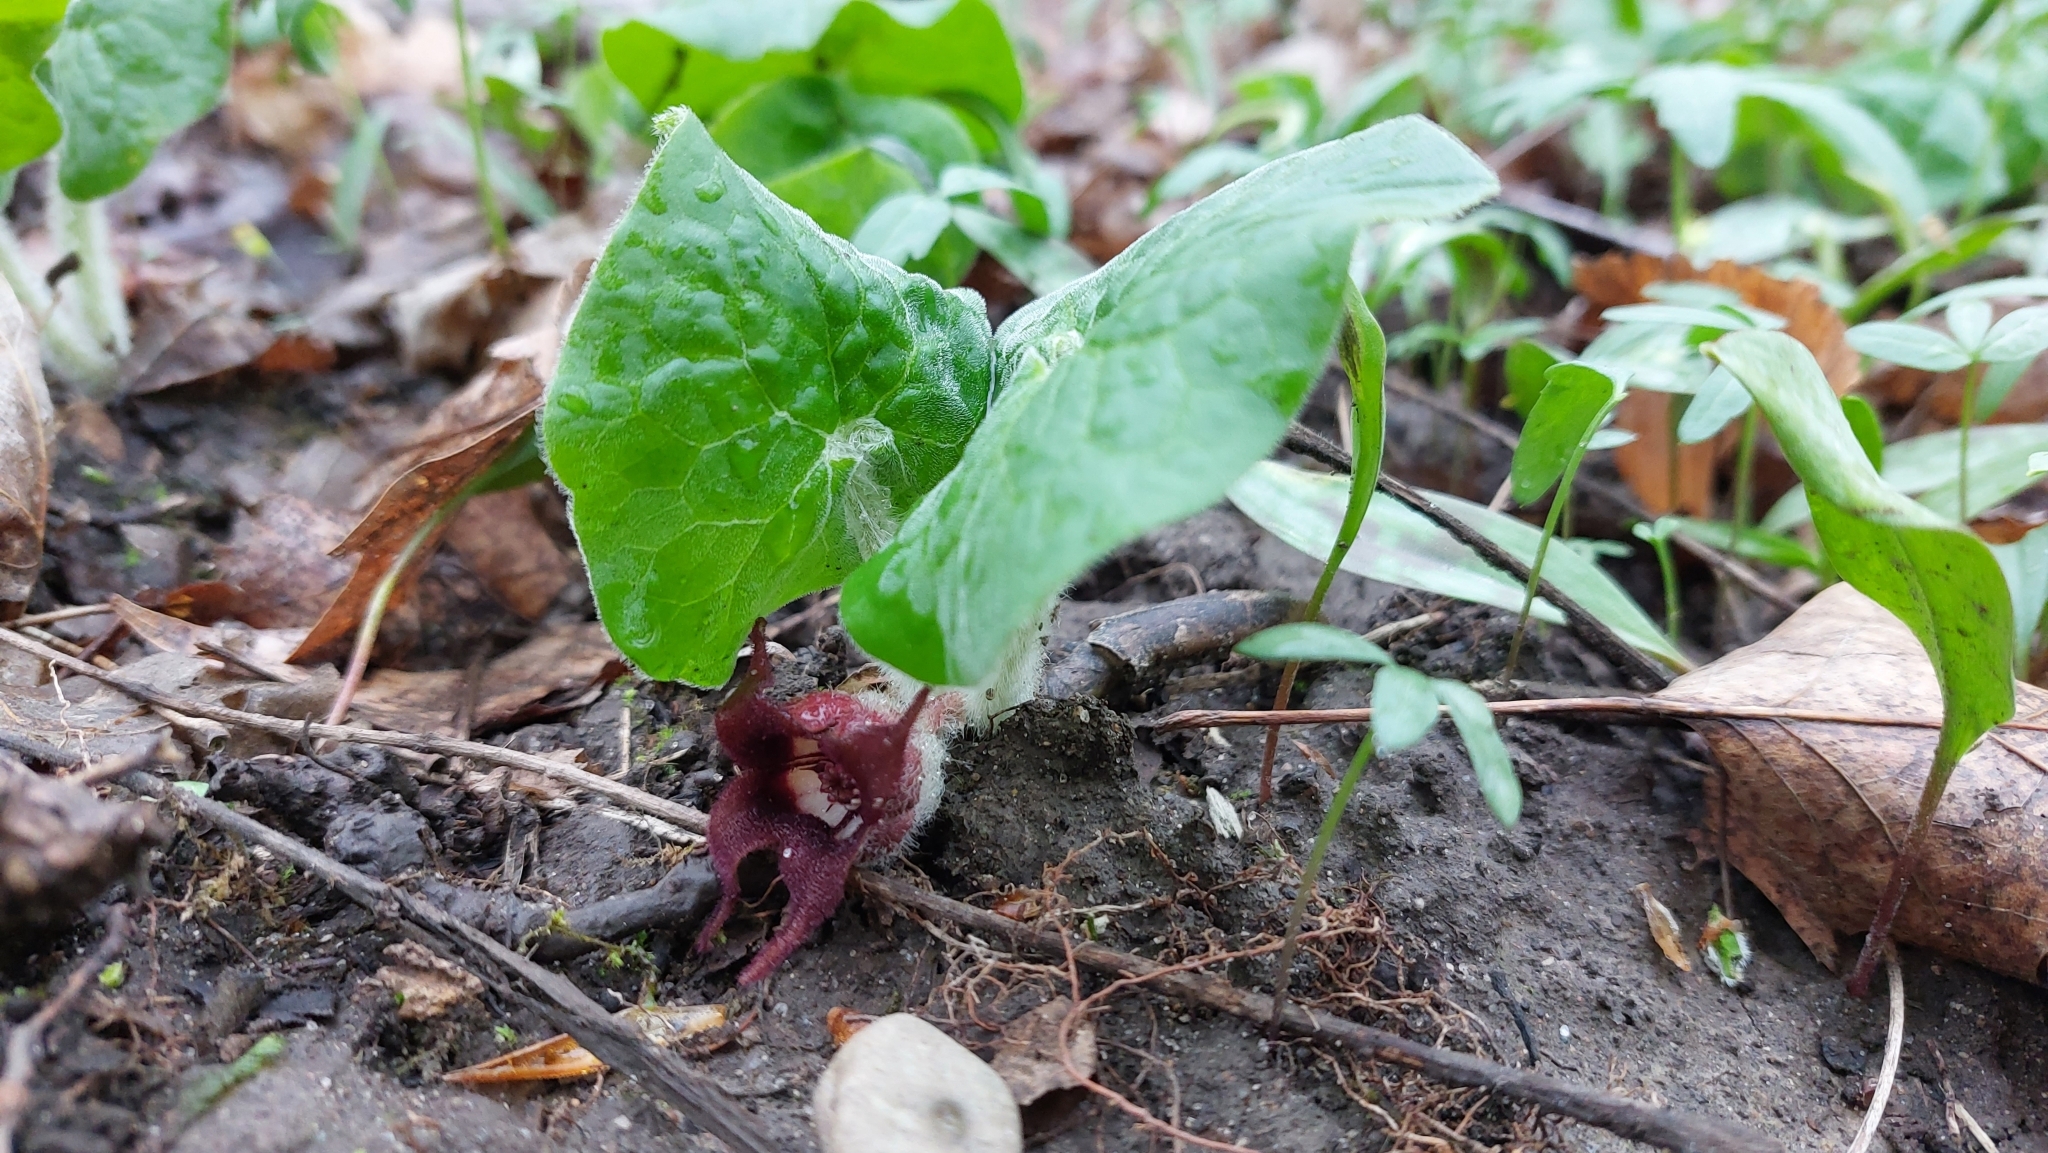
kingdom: Plantae
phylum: Tracheophyta
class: Magnoliopsida
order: Piperales
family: Aristolochiaceae
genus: Asarum
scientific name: Asarum canadense
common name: Wild ginger
